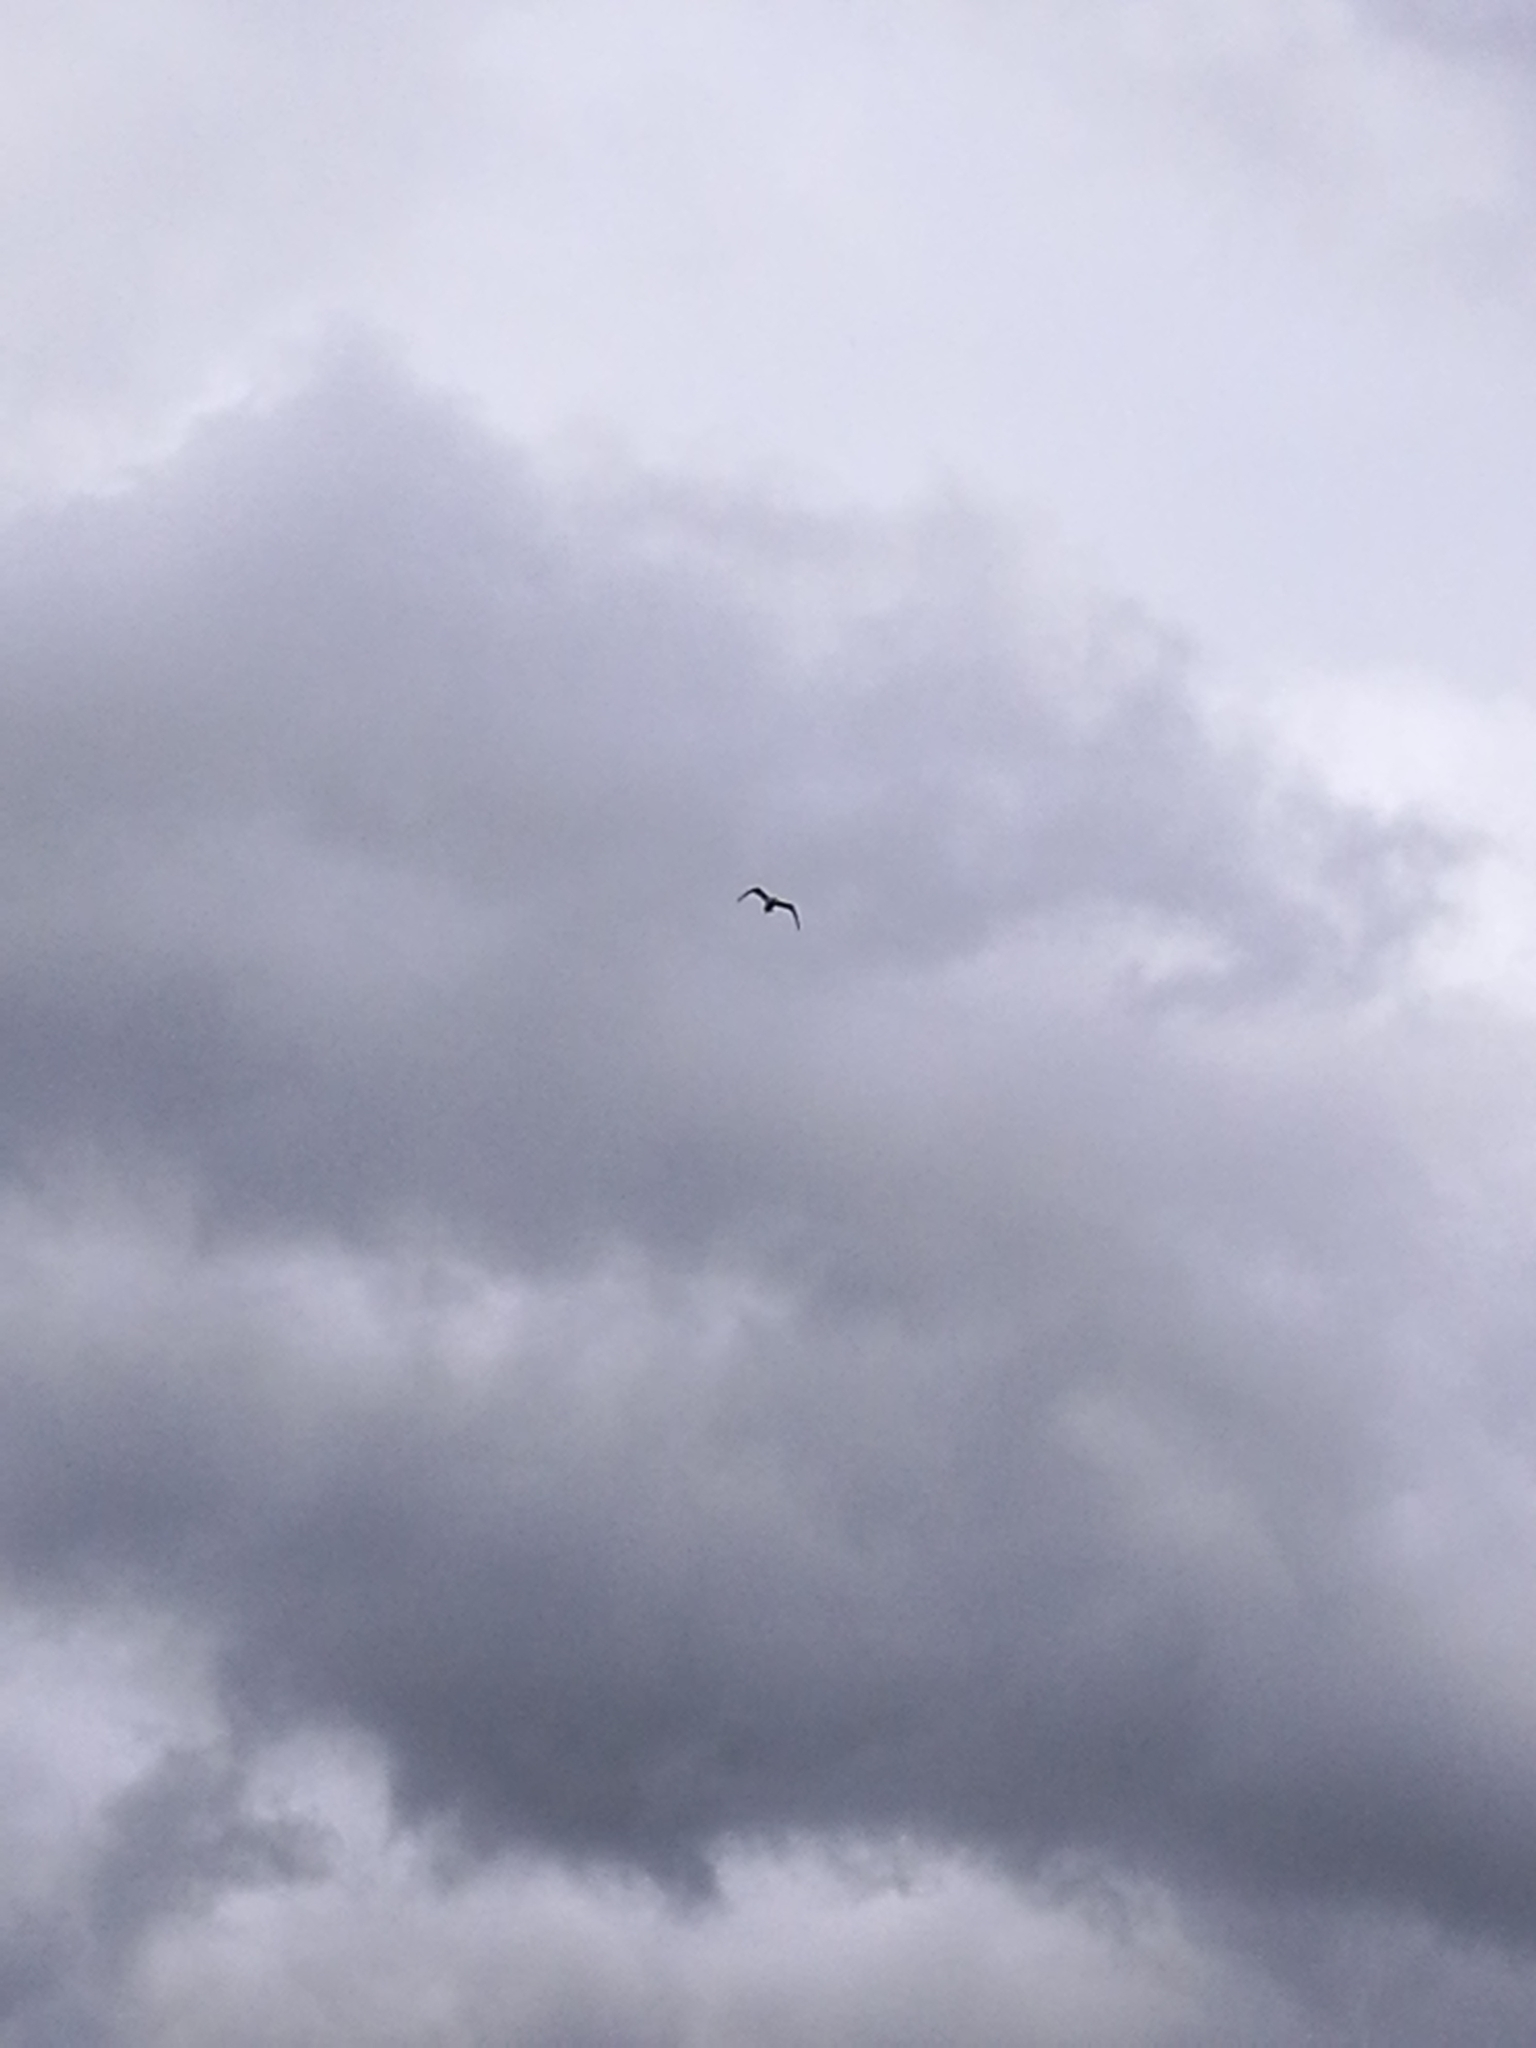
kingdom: Animalia
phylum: Chordata
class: Aves
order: Charadriiformes
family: Laridae
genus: Larus
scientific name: Larus dominicanus
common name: Kelp gull
